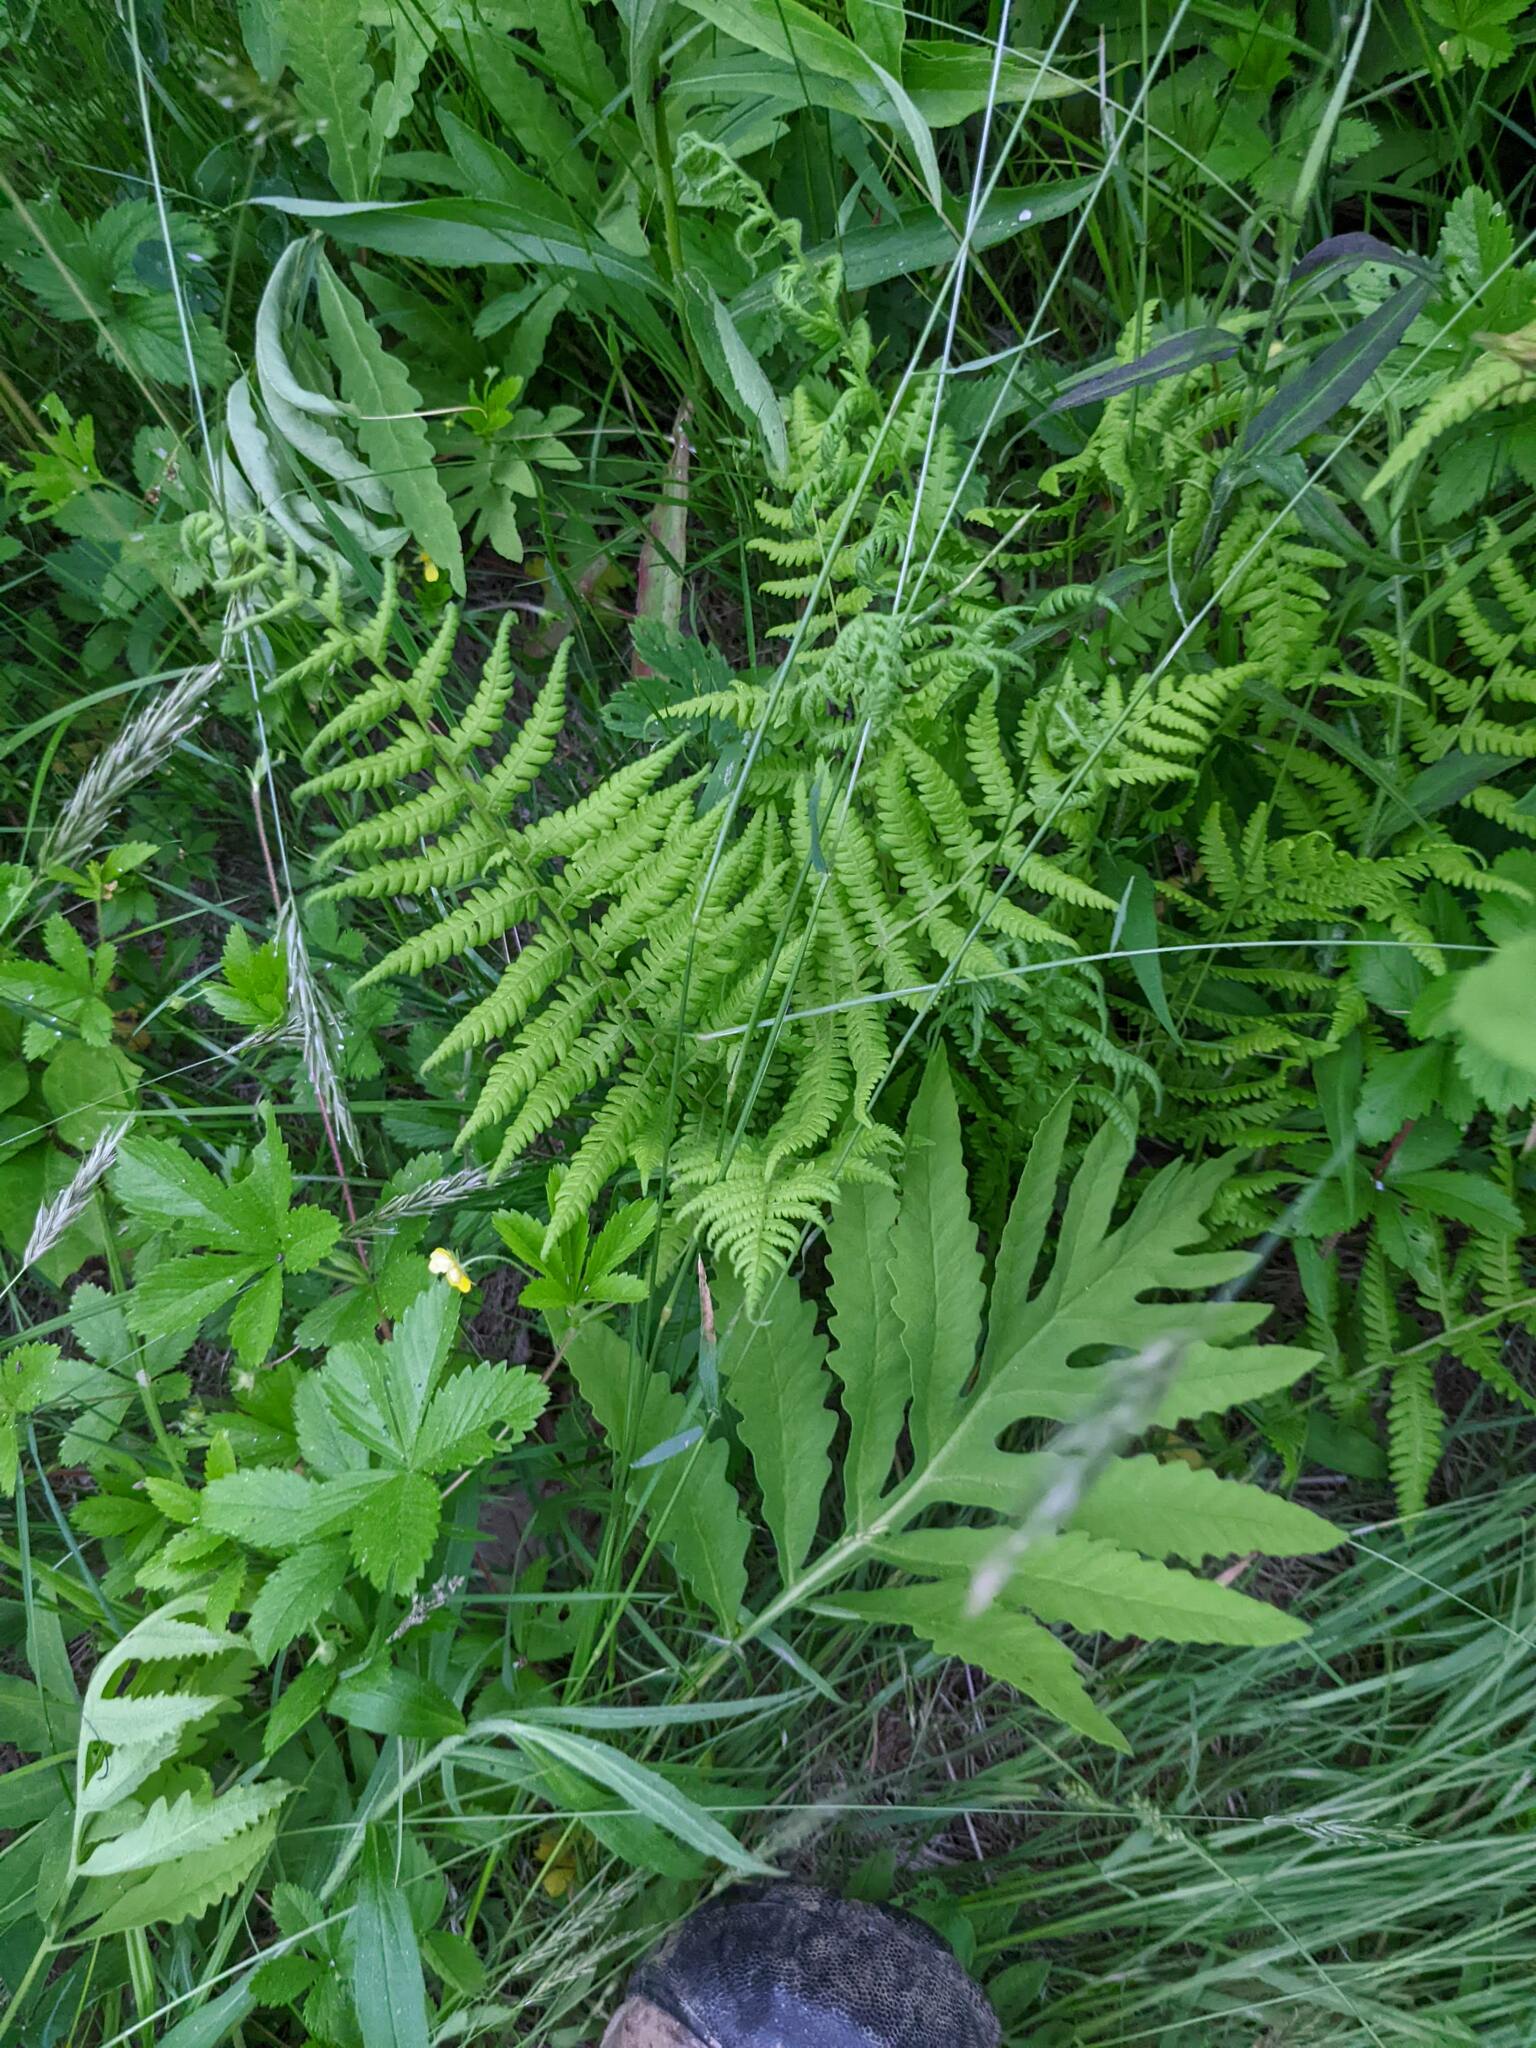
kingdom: Plantae
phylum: Tracheophyta
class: Polypodiopsida
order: Polypodiales
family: Thelypteridaceae
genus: Amauropelta
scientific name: Amauropelta noveboracensis
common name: New york fern
